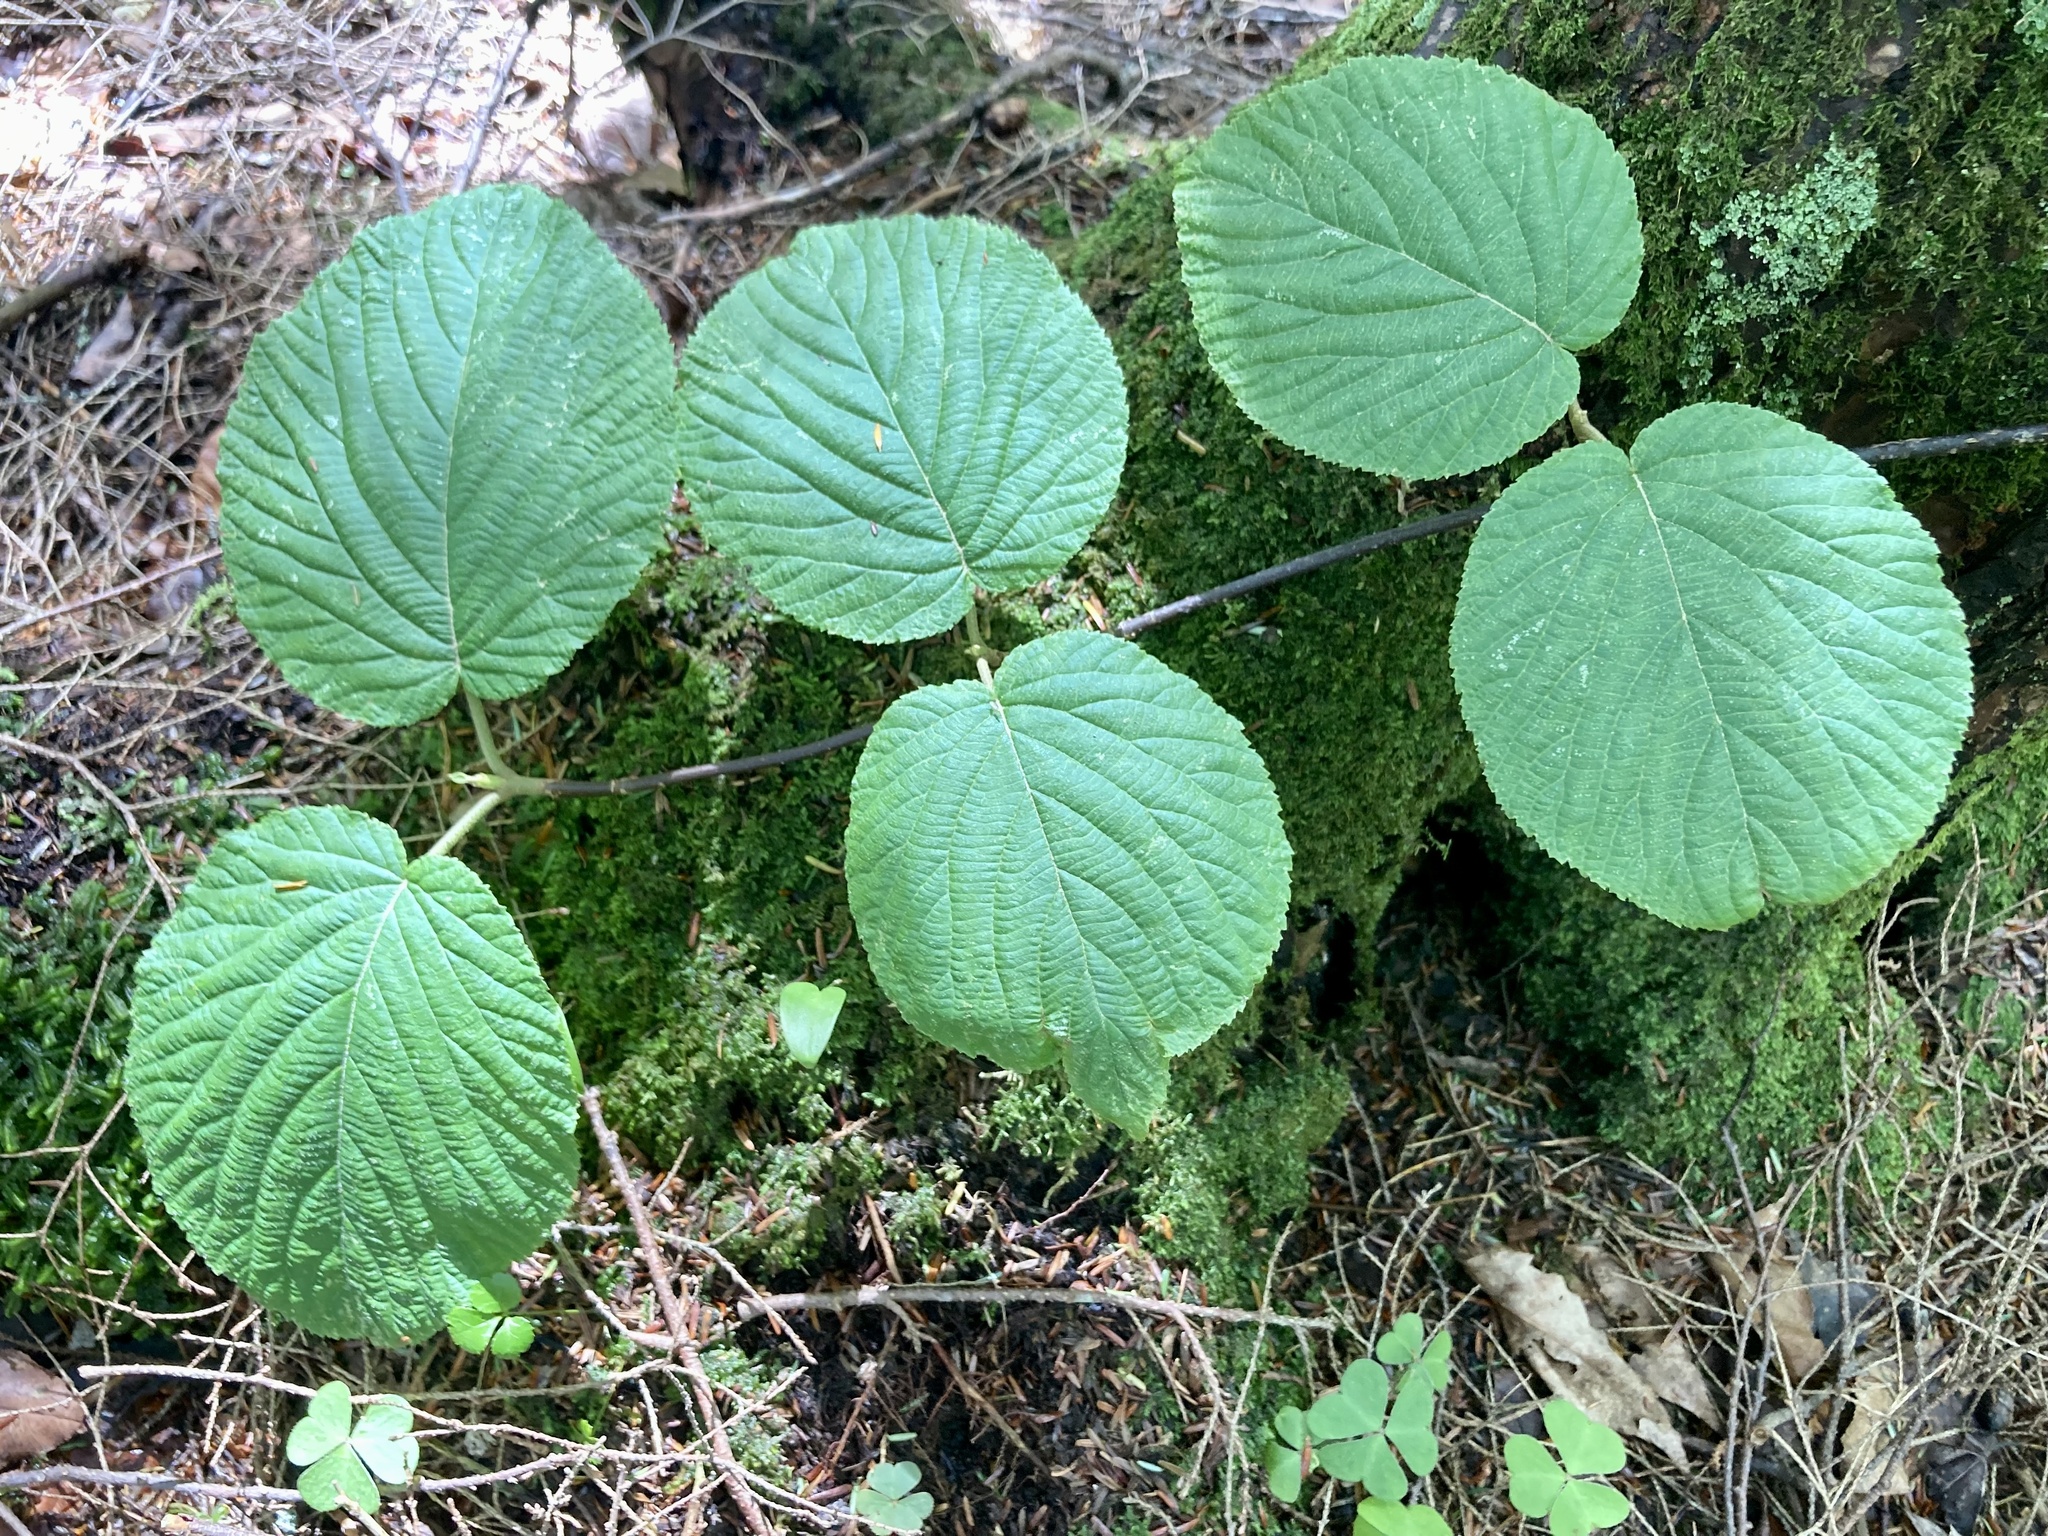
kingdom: Plantae
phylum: Tracheophyta
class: Magnoliopsida
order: Dipsacales
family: Viburnaceae
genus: Viburnum
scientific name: Viburnum lantanoides
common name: Hobblebush
